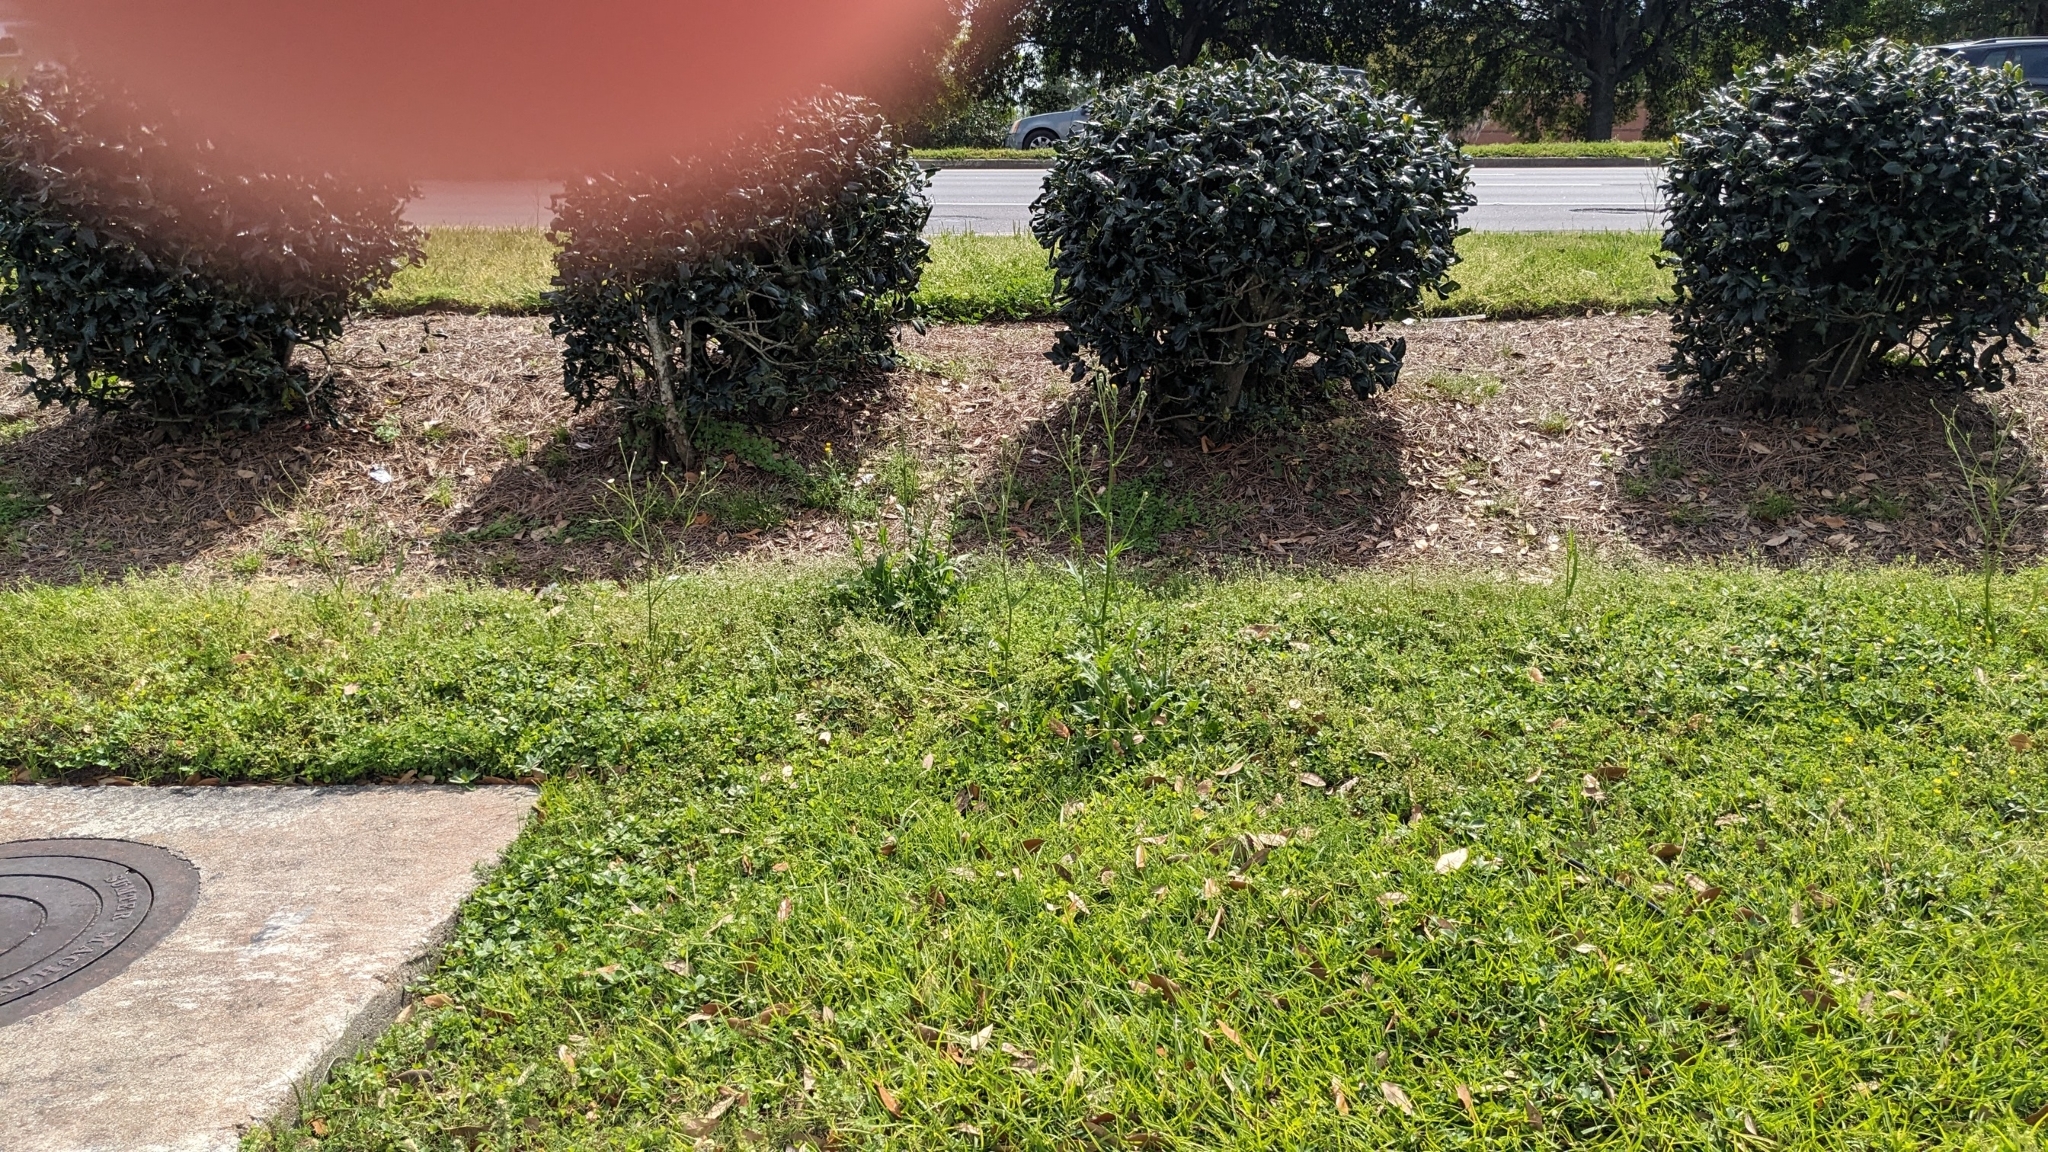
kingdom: Plantae
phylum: Tracheophyta
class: Magnoliopsida
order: Asterales
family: Asteraceae
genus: Hypochaeris
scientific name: Hypochaeris albiflora
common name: White flatweed
